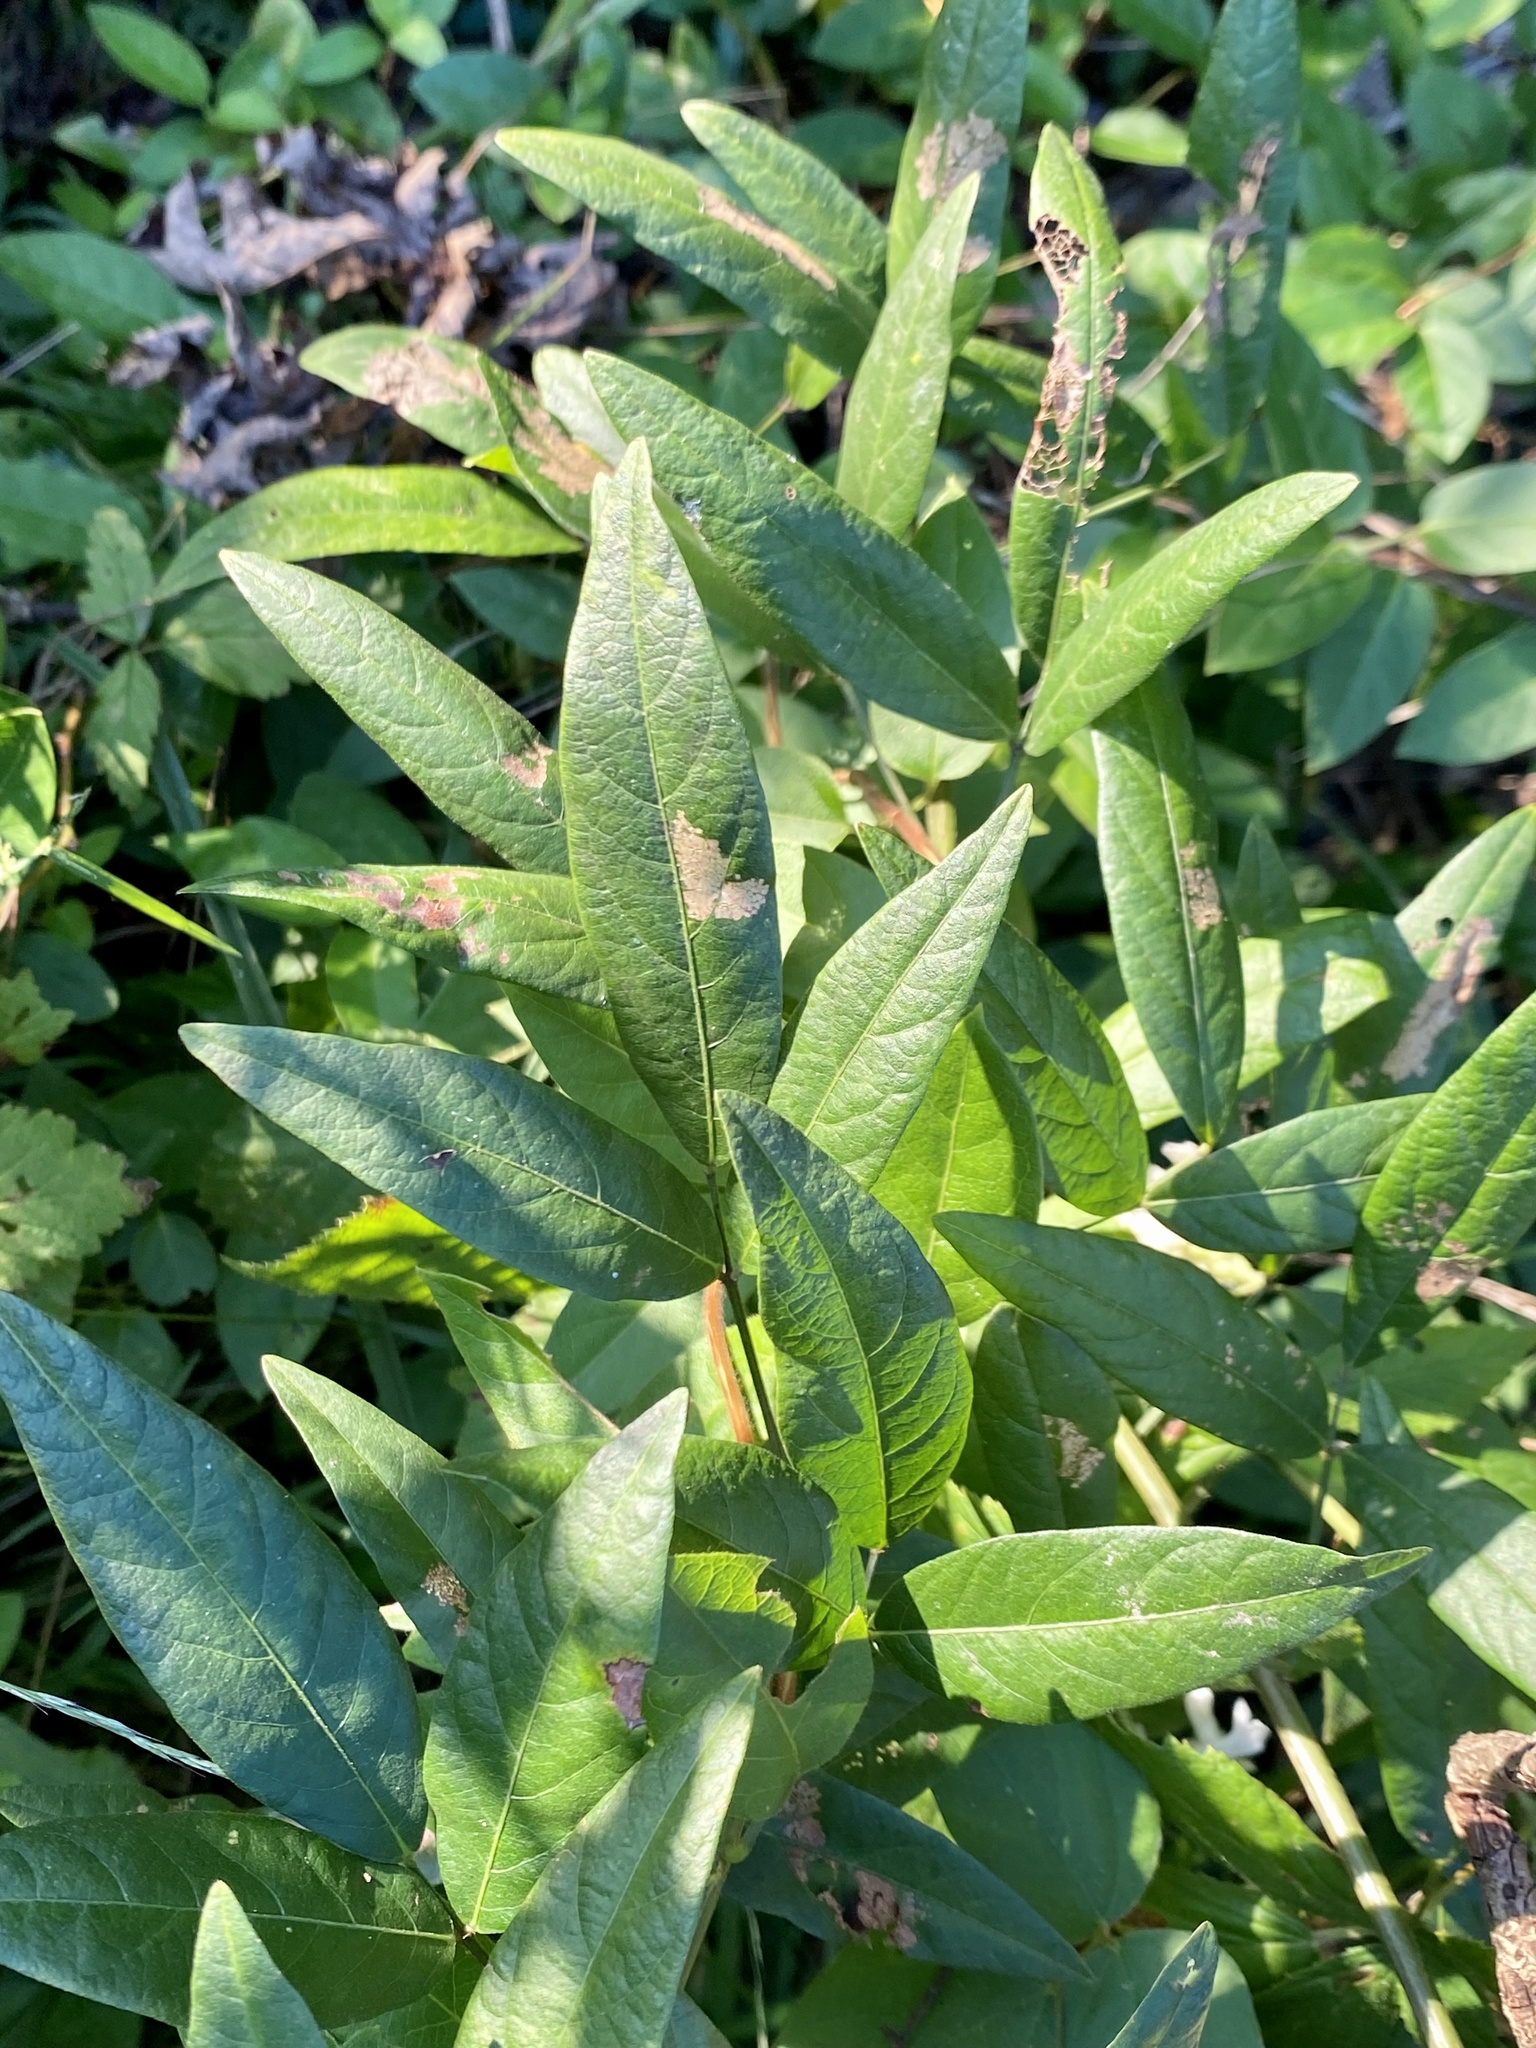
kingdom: Plantae
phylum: Tracheophyta
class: Magnoliopsida
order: Fabales
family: Fabaceae
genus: Desmodium
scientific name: Desmodium paniculatum
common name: Panicled tick-clover
